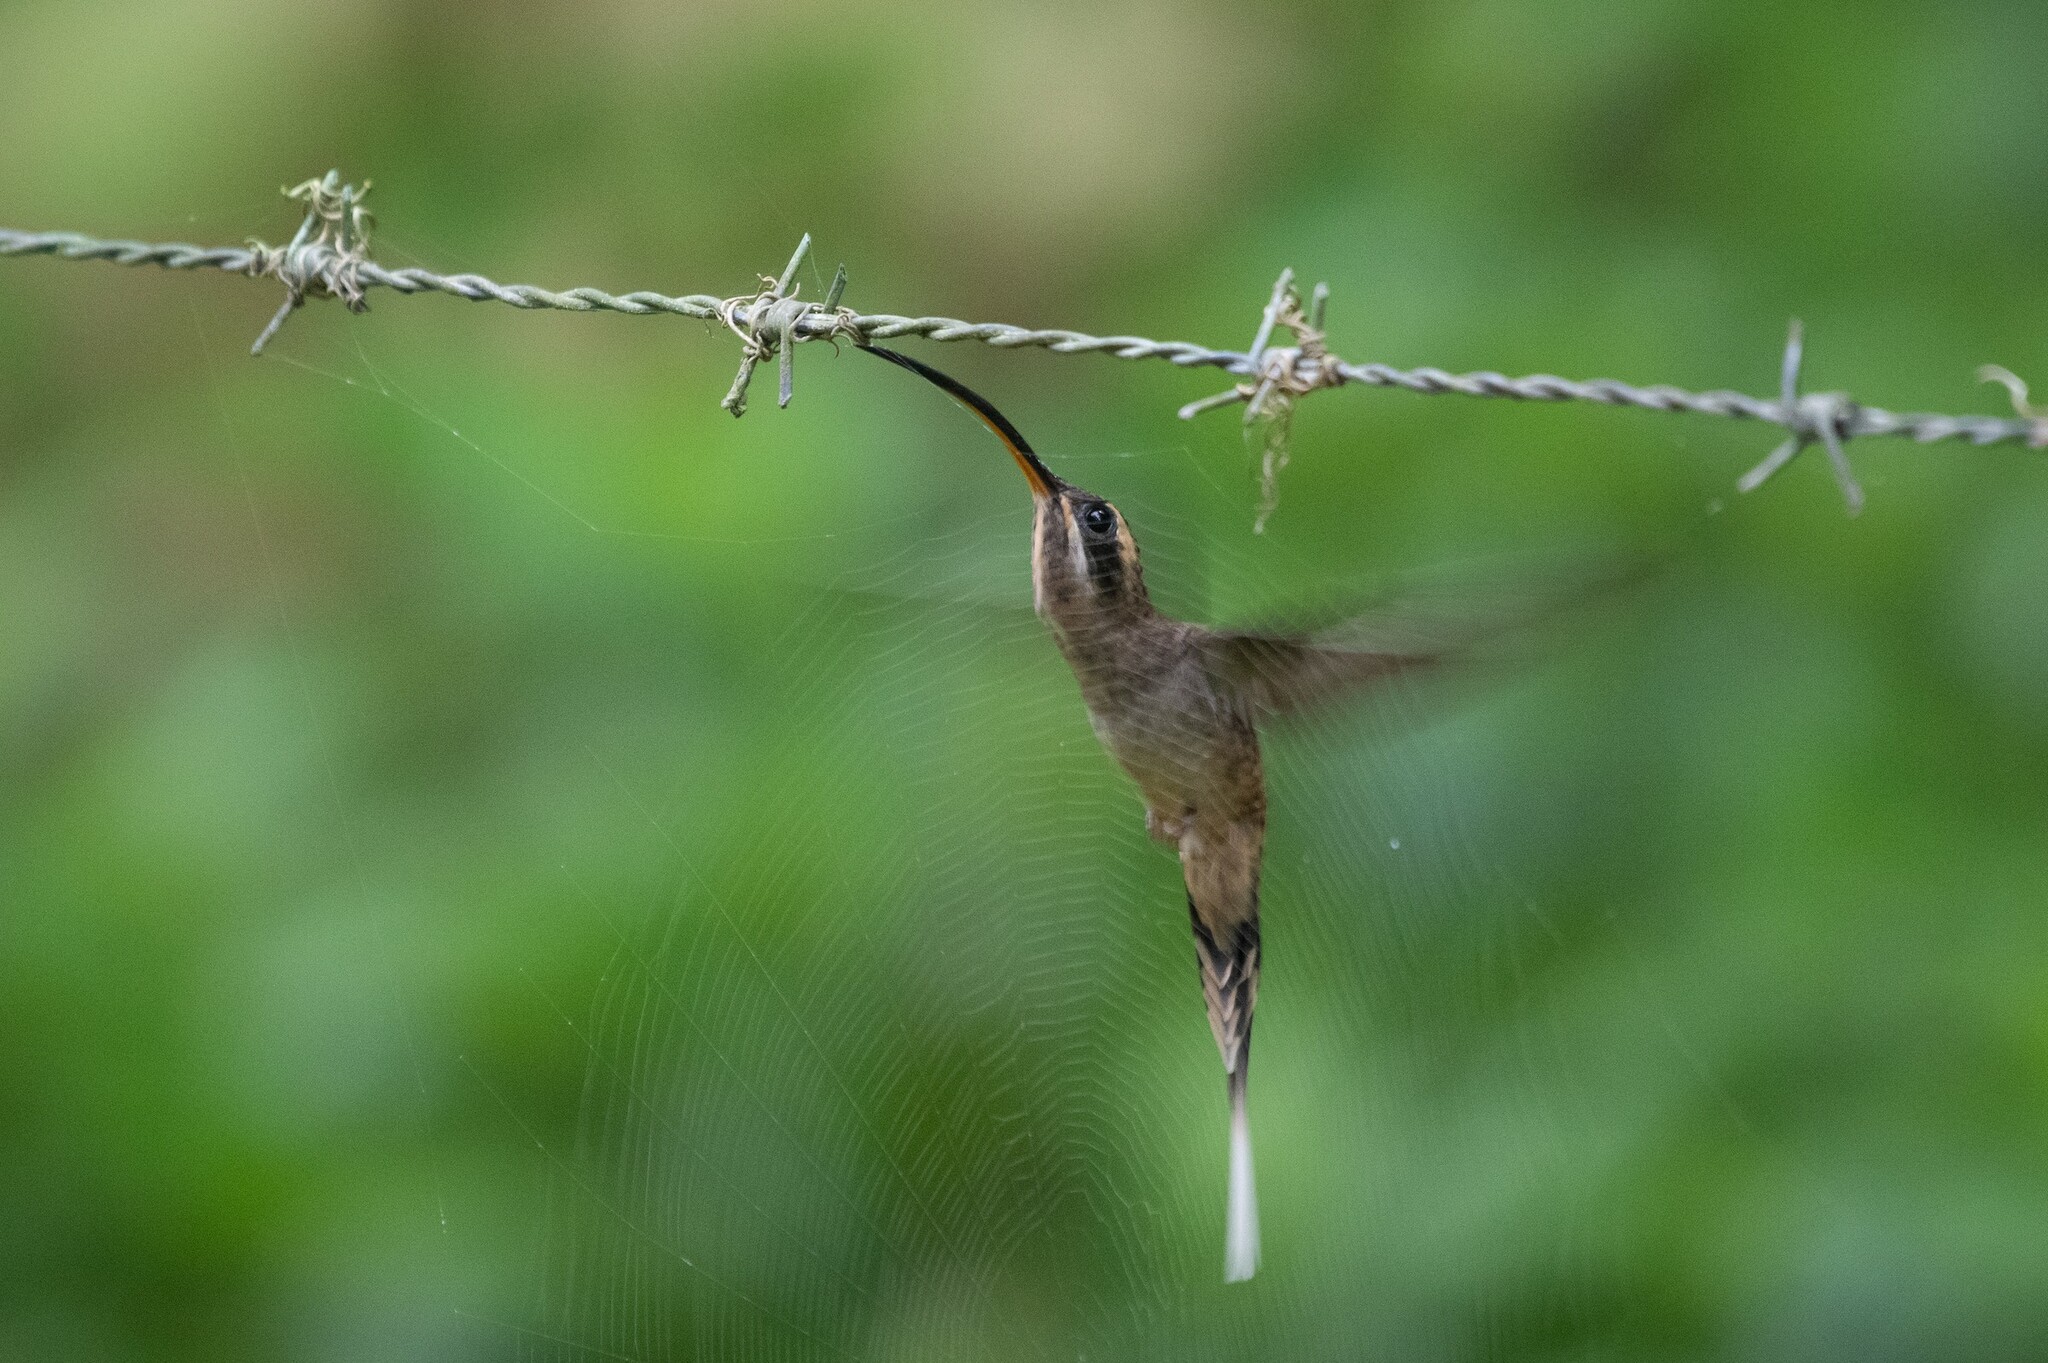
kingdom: Animalia
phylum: Chordata
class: Aves
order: Apodiformes
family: Trochilidae
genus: Phaethornis
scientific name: Phaethornis longirostris
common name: Long-billed hermit
